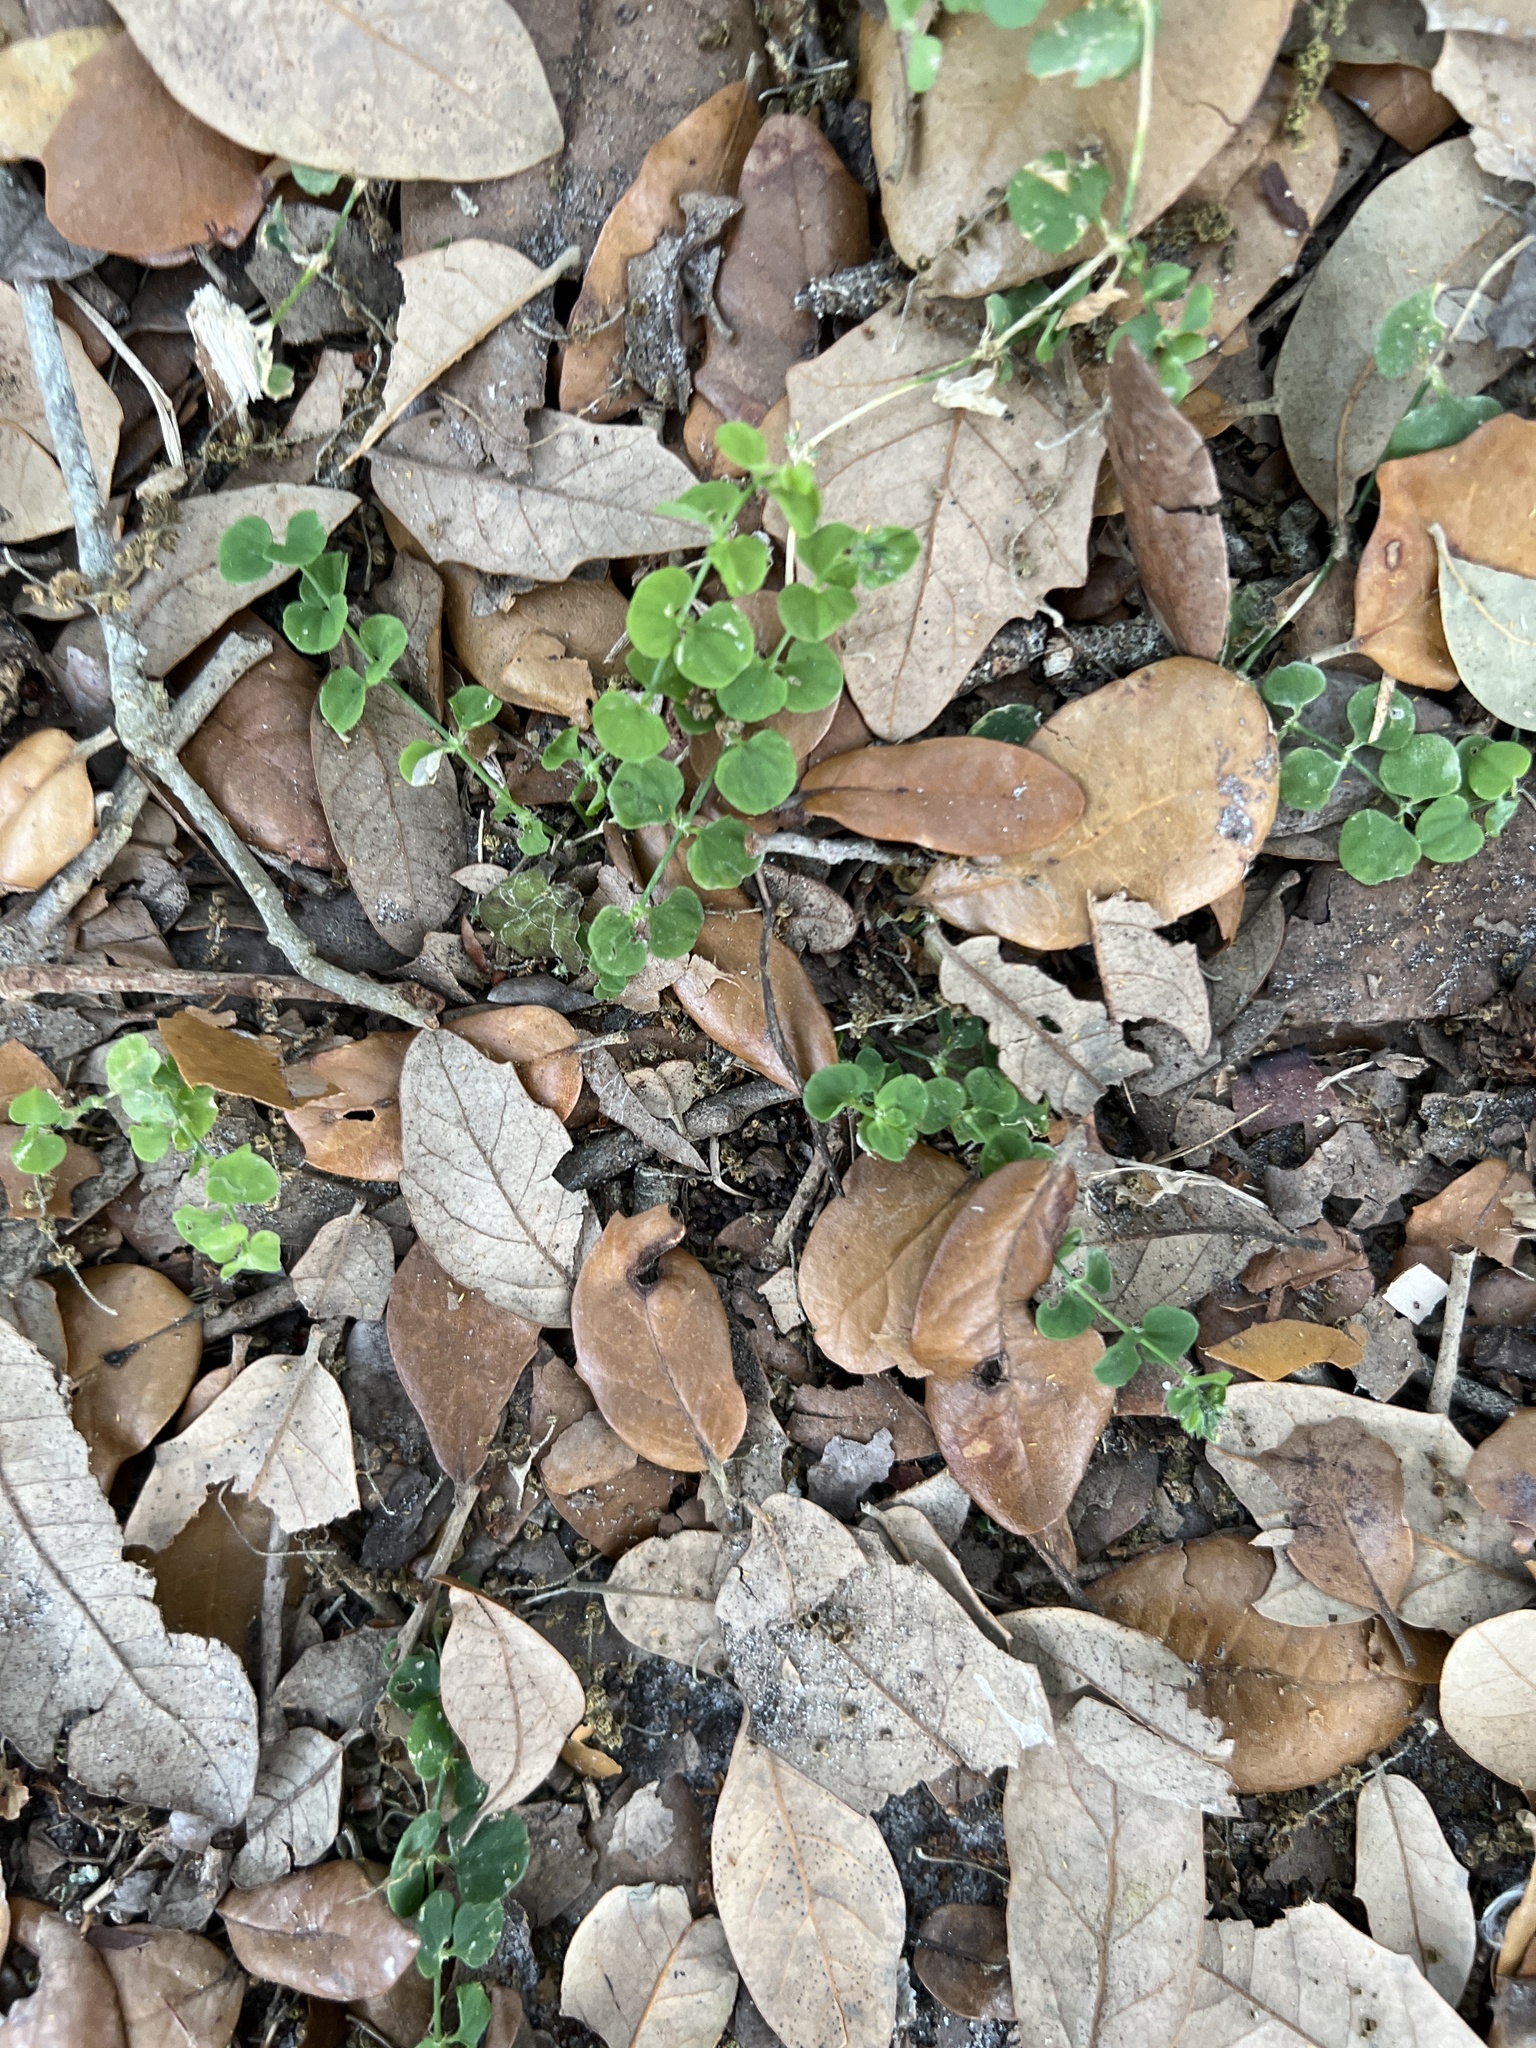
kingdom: Plantae
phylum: Tracheophyta
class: Magnoliopsida
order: Caryophyllales
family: Caryophyllaceae
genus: Drymaria
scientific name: Drymaria cordata
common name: Whitesnow
